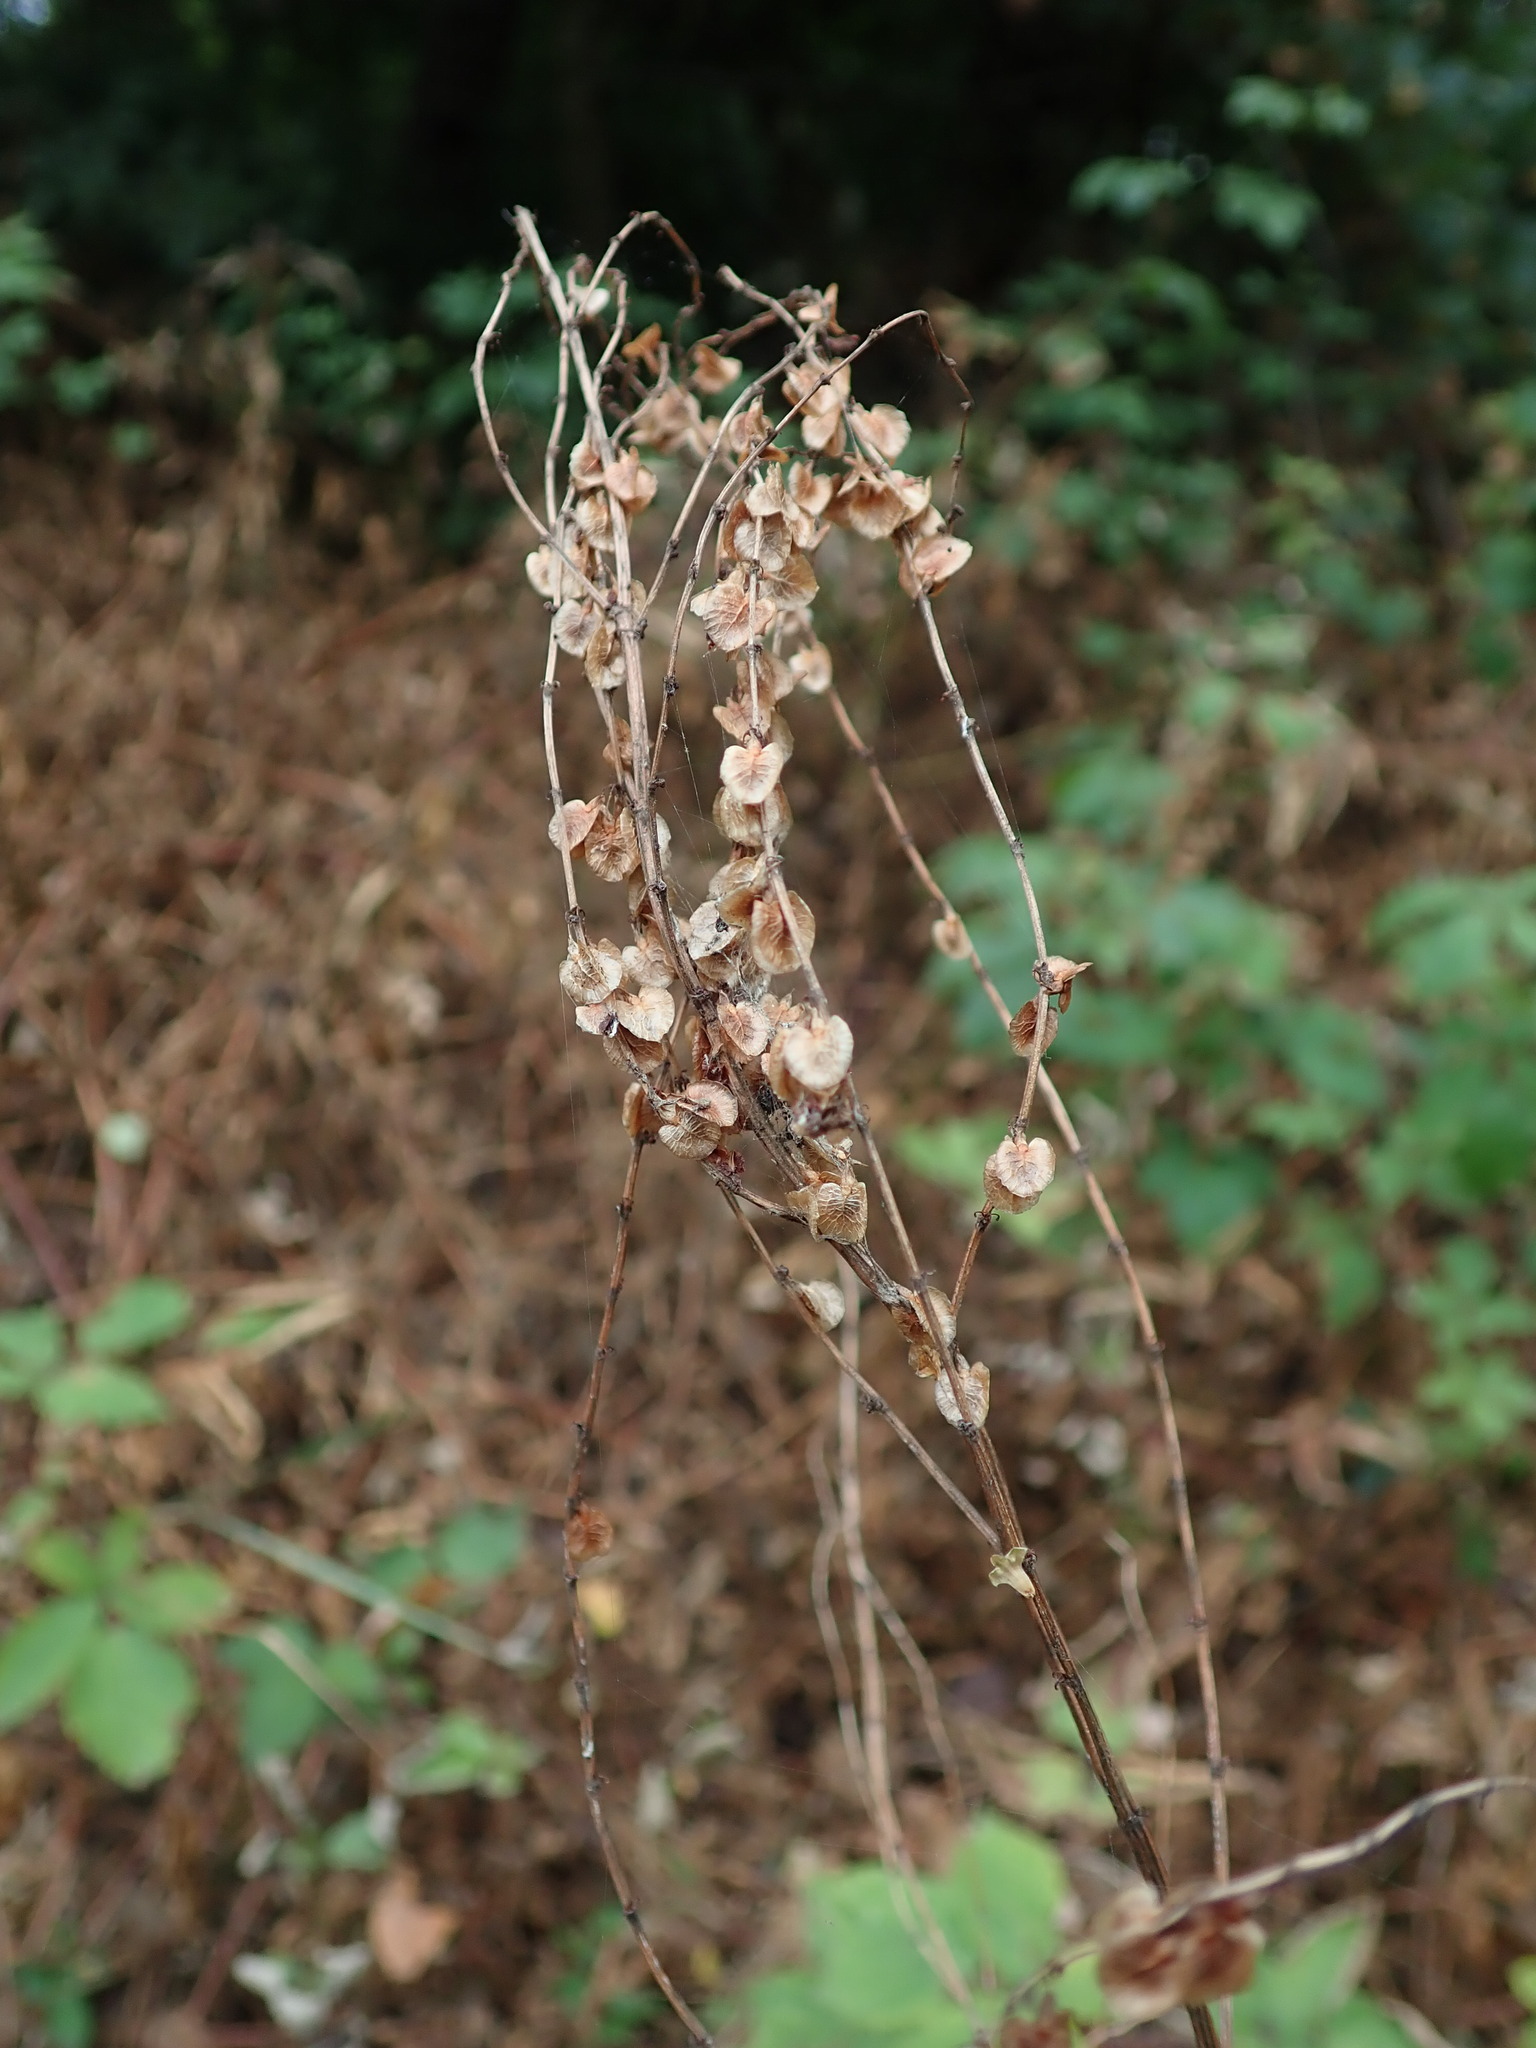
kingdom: Plantae
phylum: Tracheophyta
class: Magnoliopsida
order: Caryophyllales
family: Polygonaceae
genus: Rumex
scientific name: Rumex acetosa
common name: Garden sorrel
